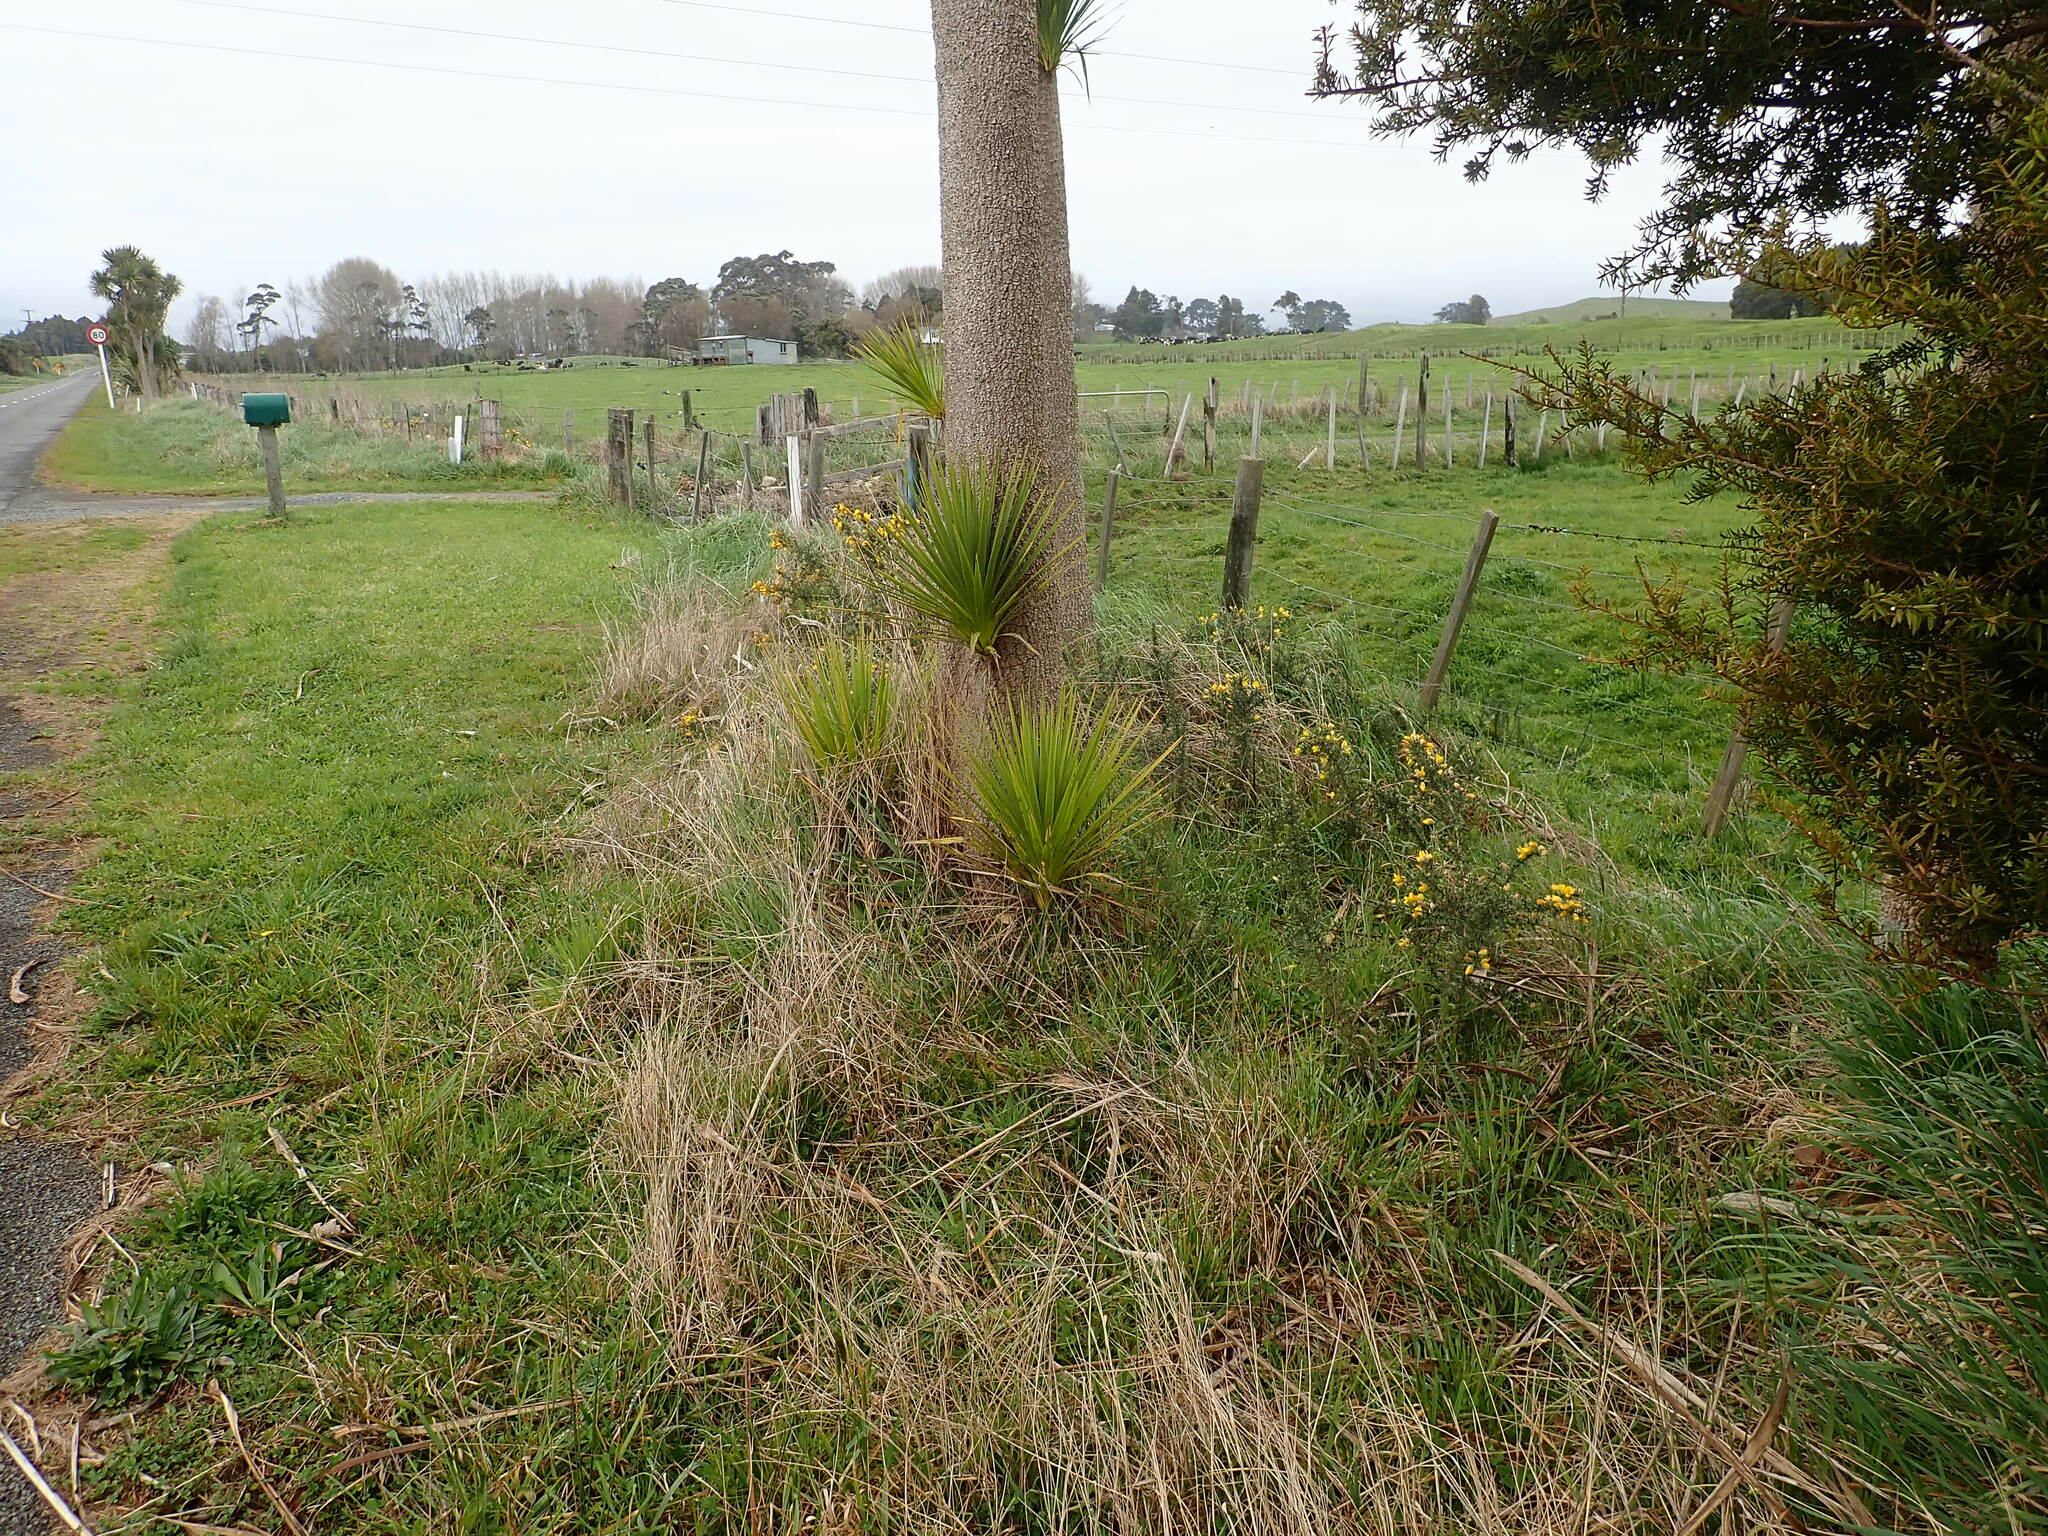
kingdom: Plantae
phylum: Tracheophyta
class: Magnoliopsida
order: Fabales
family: Fabaceae
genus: Ulex
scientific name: Ulex europaeus
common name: Common gorse
